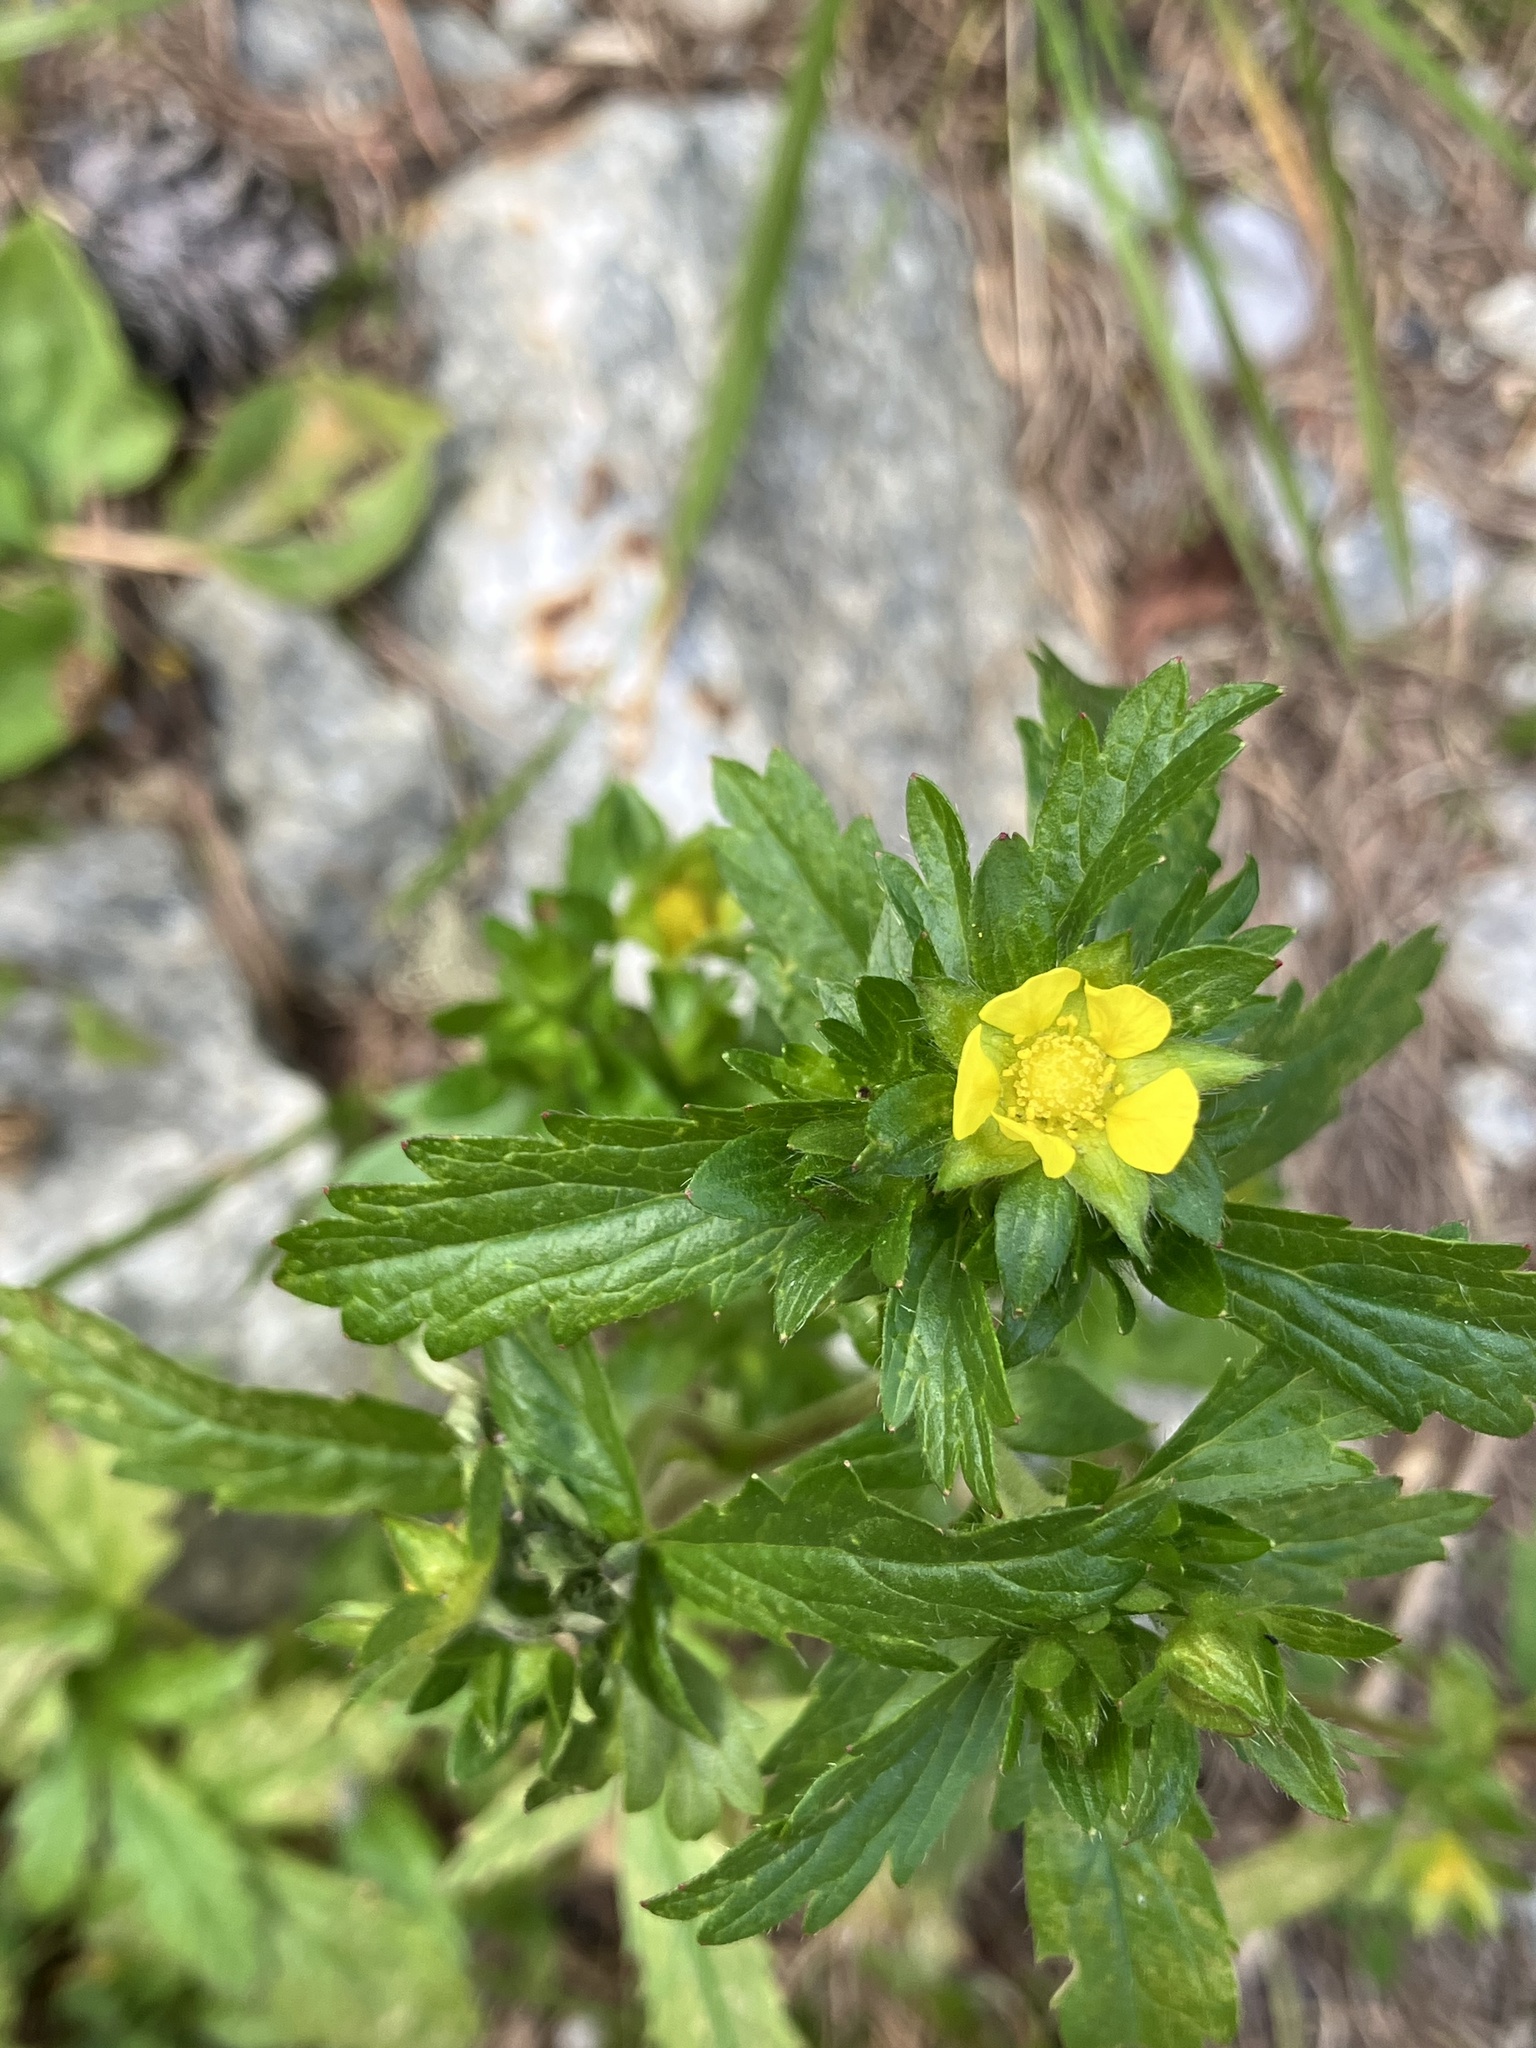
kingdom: Plantae
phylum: Tracheophyta
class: Magnoliopsida
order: Rosales
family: Rosaceae
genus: Potentilla
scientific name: Potentilla norvegica
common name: Ternate-leaved cinquefoil
